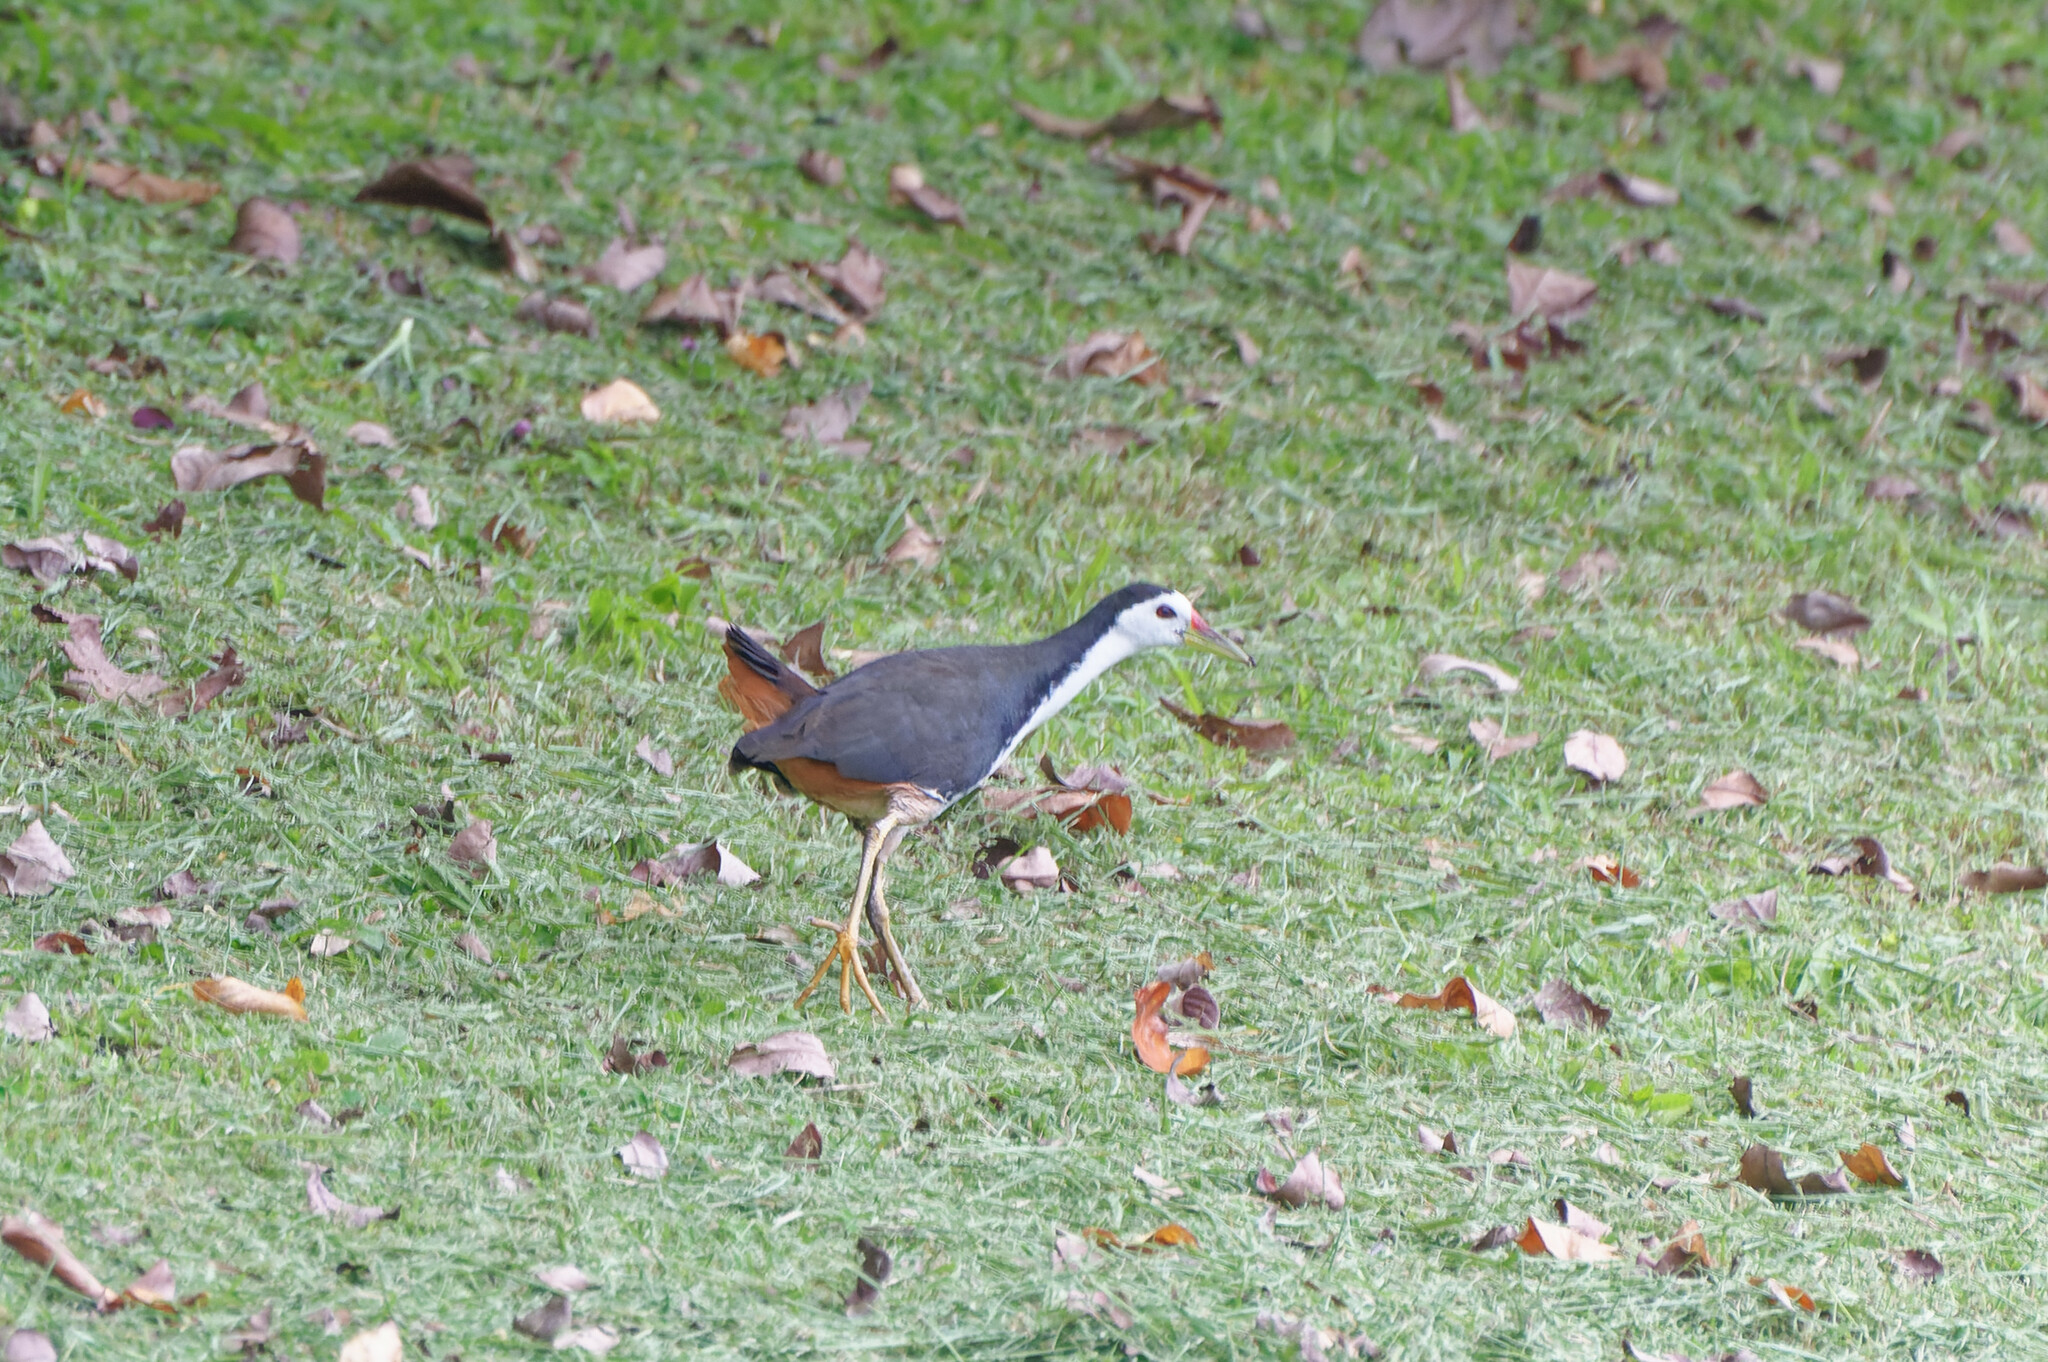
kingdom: Animalia
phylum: Chordata
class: Aves
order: Gruiformes
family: Rallidae
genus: Amaurornis
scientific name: Amaurornis phoenicurus
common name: White-breasted waterhen
